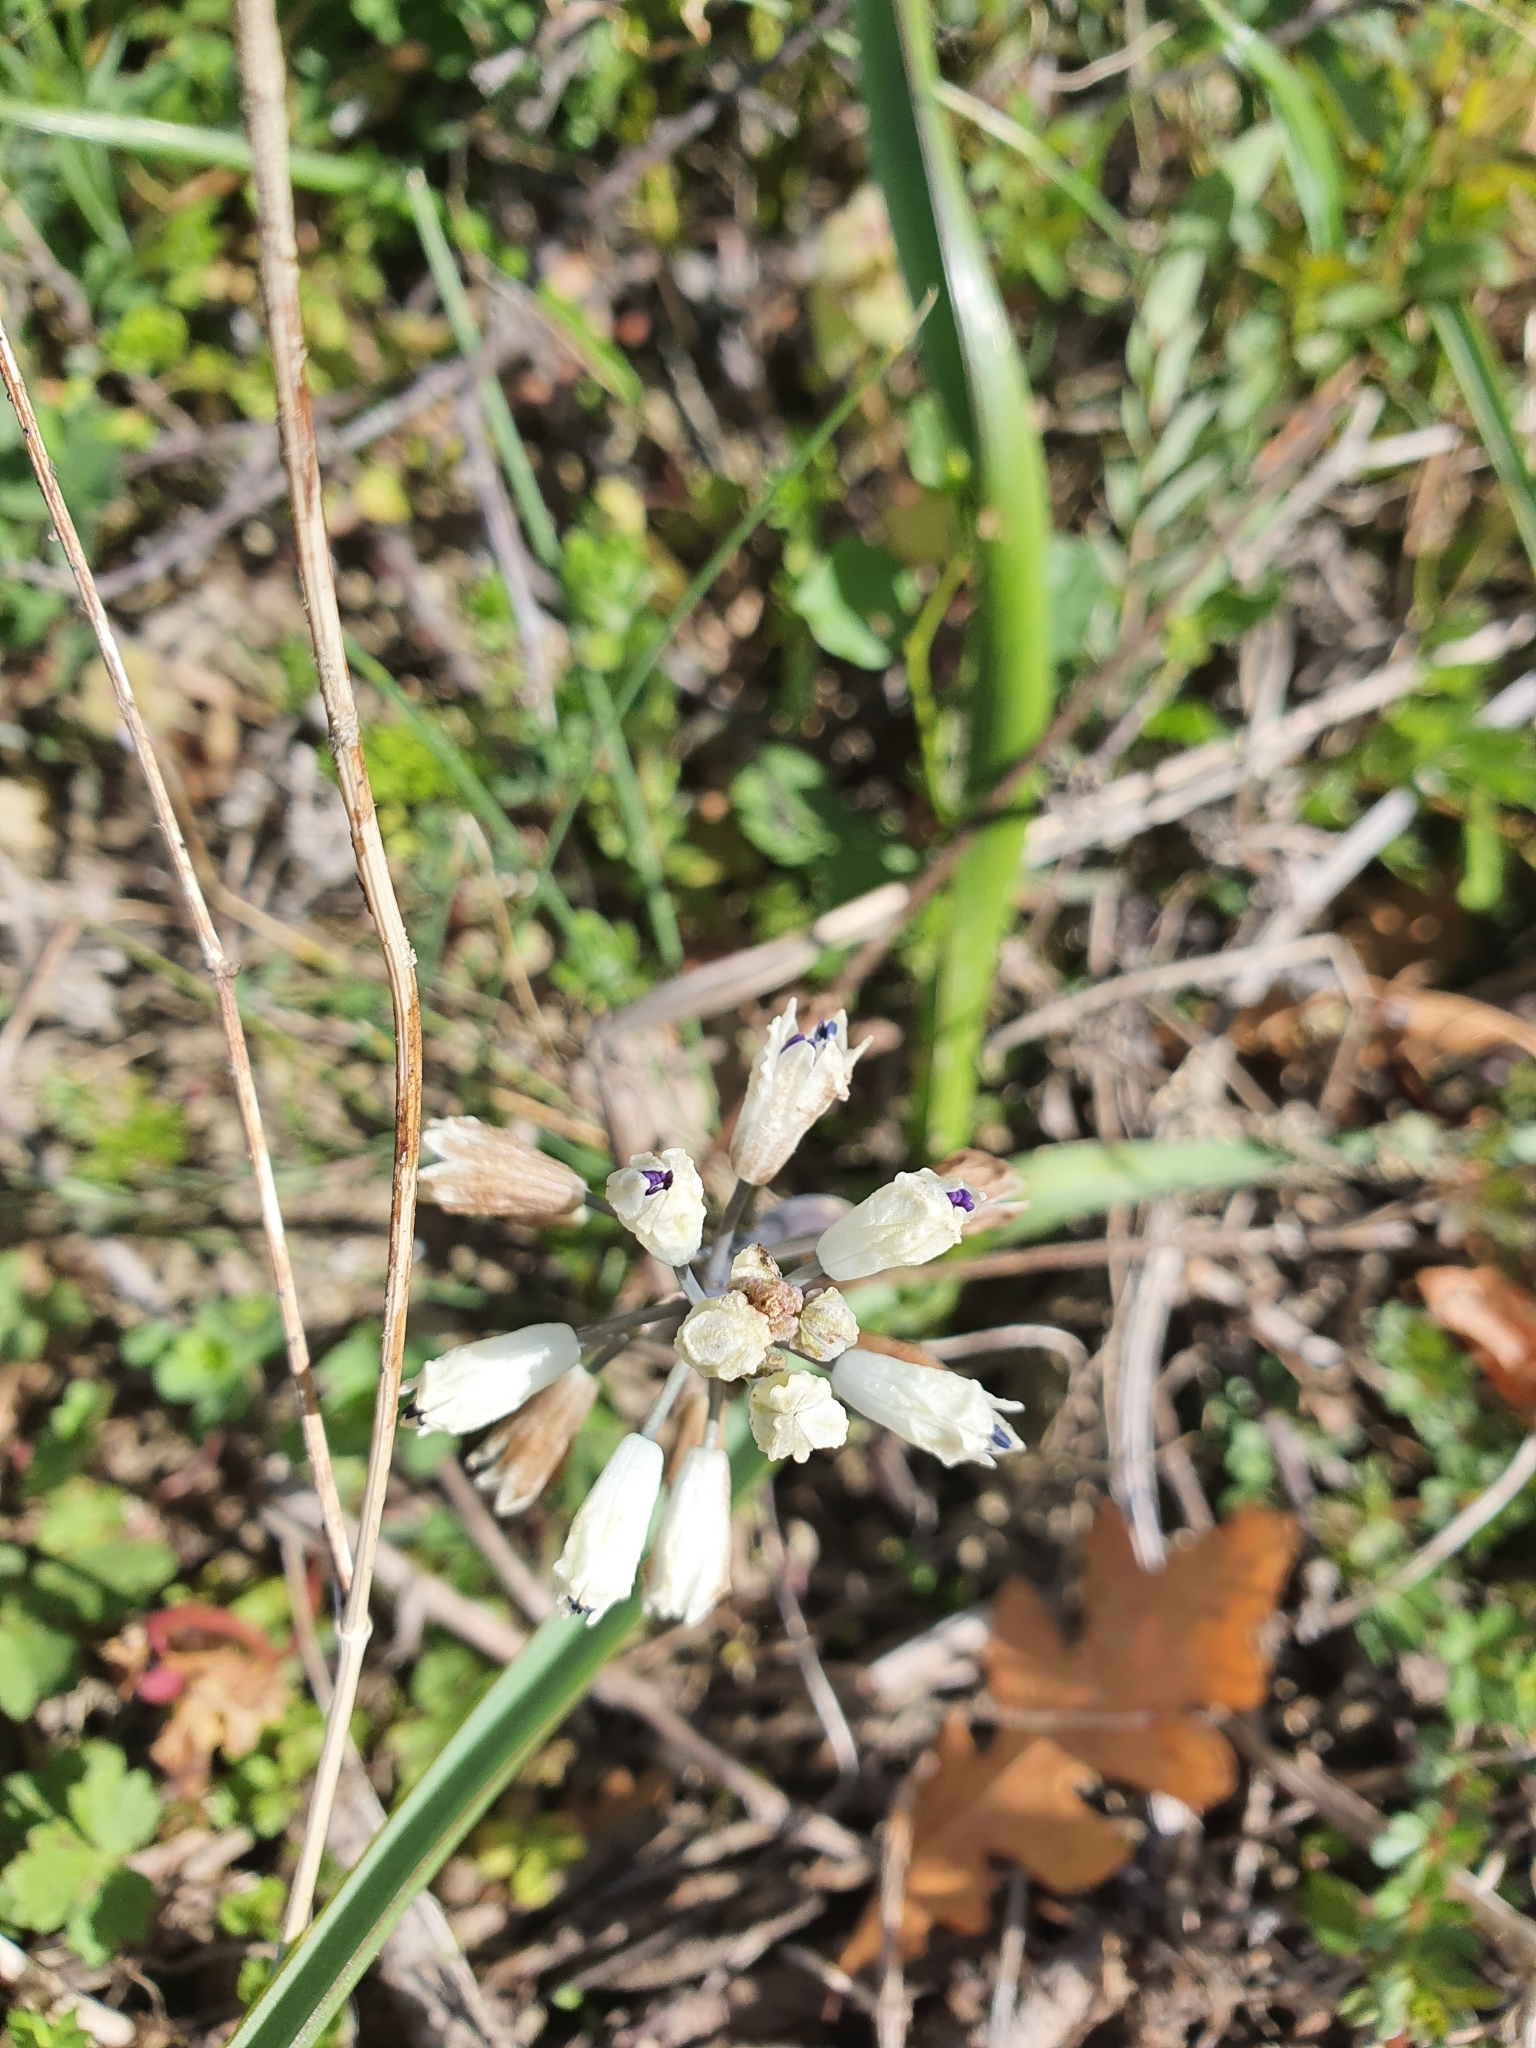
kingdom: Plantae
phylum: Tracheophyta
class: Liliopsida
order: Asparagales
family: Asparagaceae
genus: Bellevalia
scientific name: Bellevalia romana
